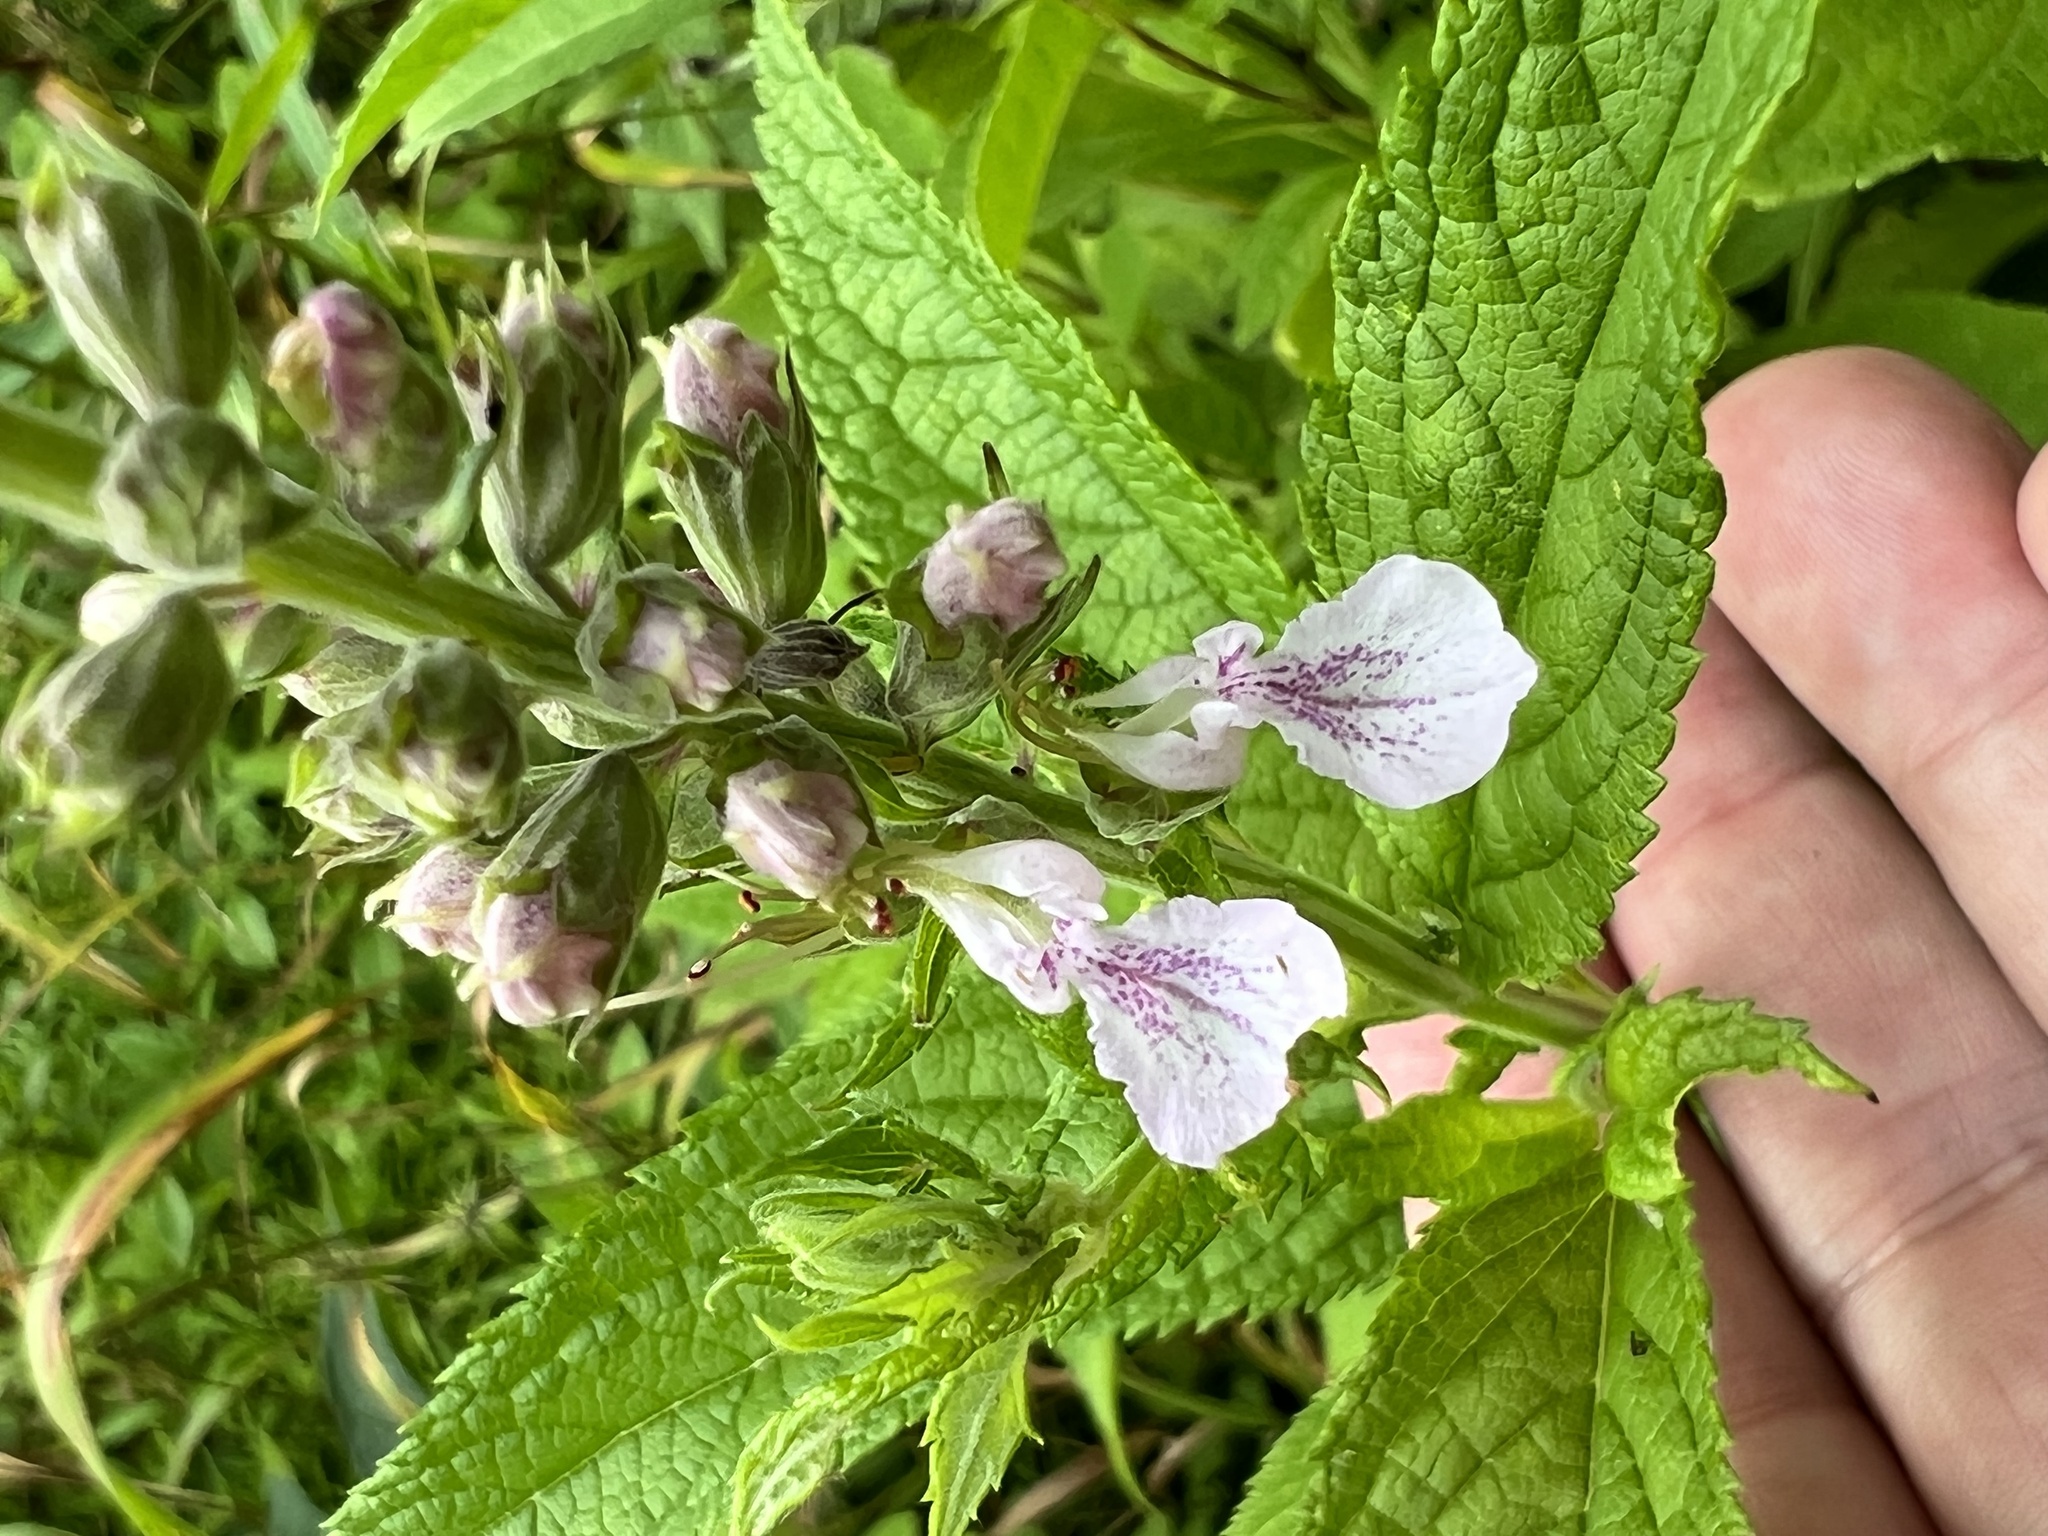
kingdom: Plantae
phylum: Tracheophyta
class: Magnoliopsida
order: Lamiales
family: Lamiaceae
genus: Teucrium
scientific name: Teucrium canadense
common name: American germander
